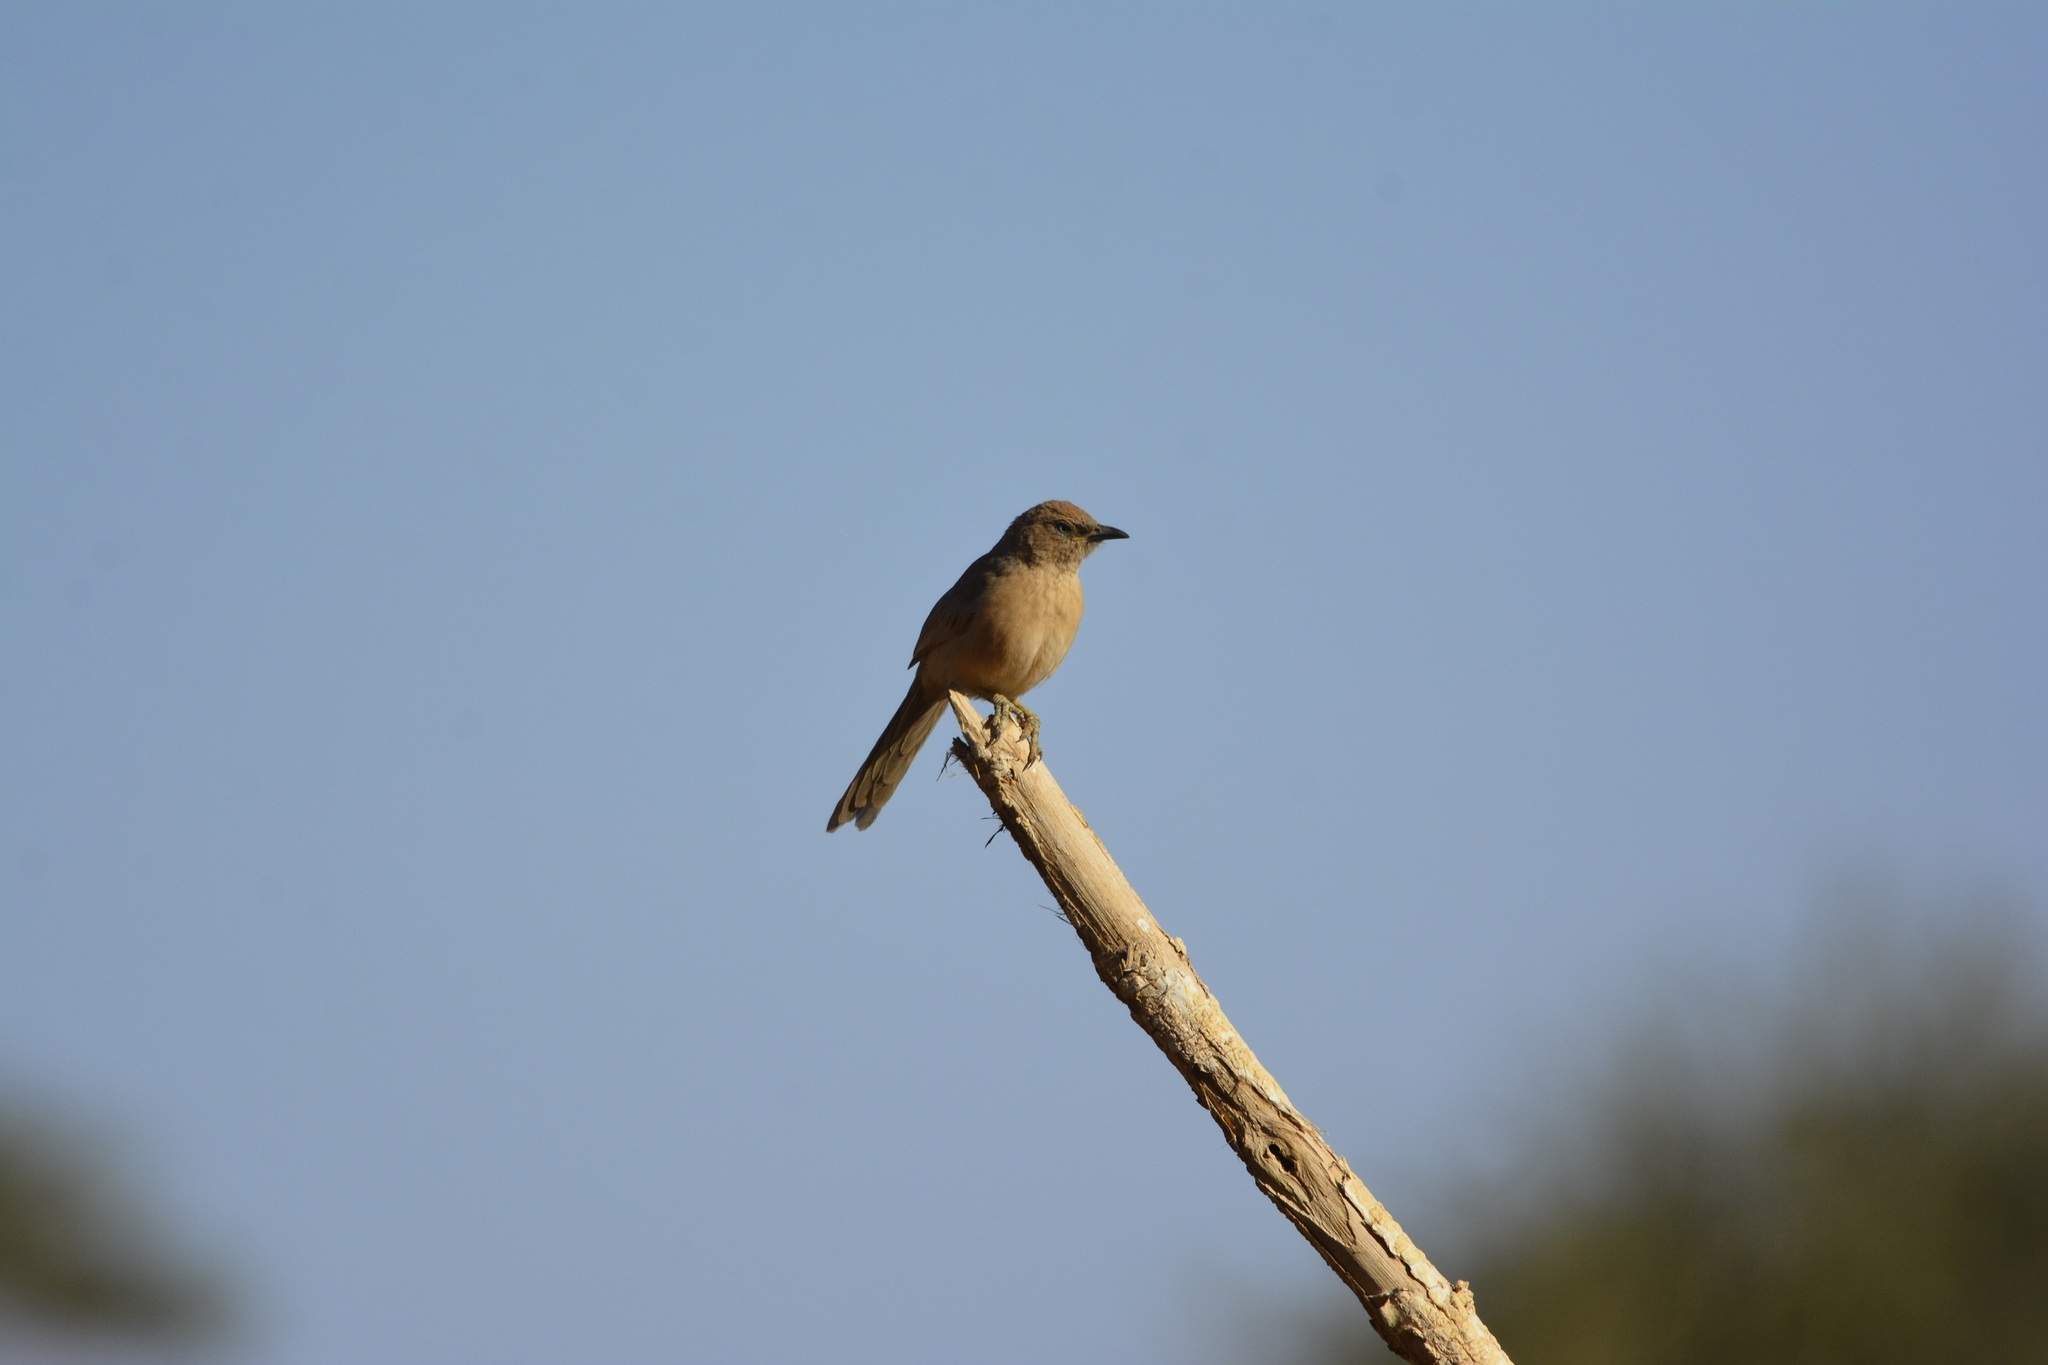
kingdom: Animalia
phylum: Chordata
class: Aves
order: Passeriformes
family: Leiothrichidae
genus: Turdoides
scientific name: Turdoides fulva
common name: Fulvous babbler
